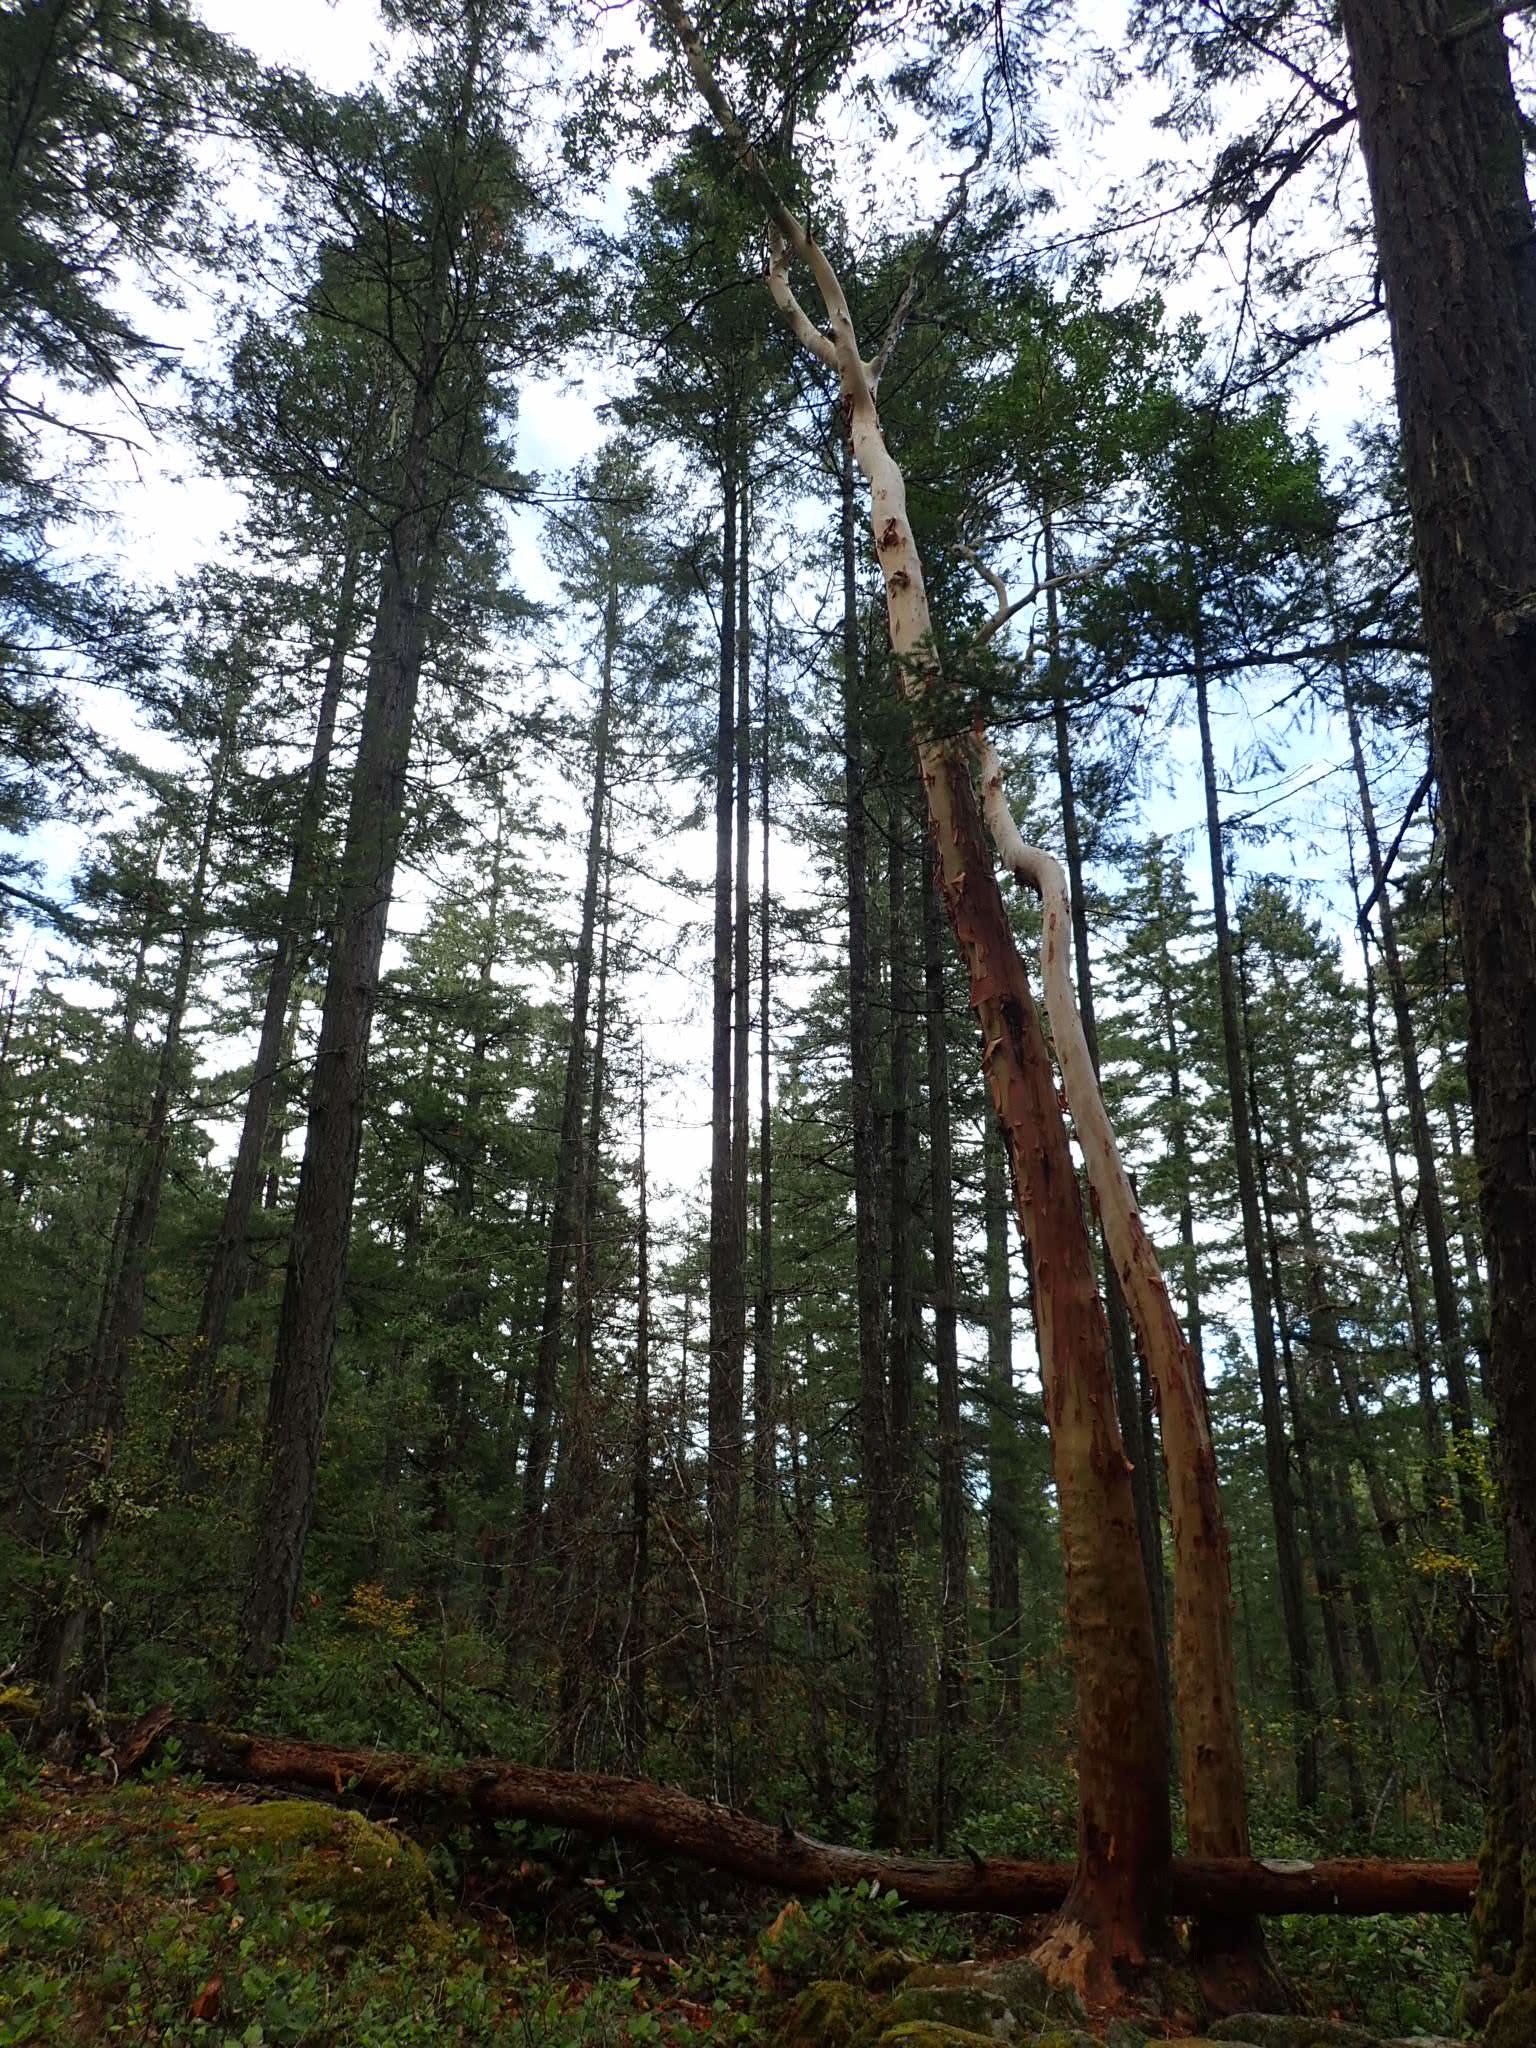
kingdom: Plantae
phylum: Tracheophyta
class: Magnoliopsida
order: Ericales
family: Ericaceae
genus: Arbutus
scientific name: Arbutus menziesii
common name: Pacific madrone
